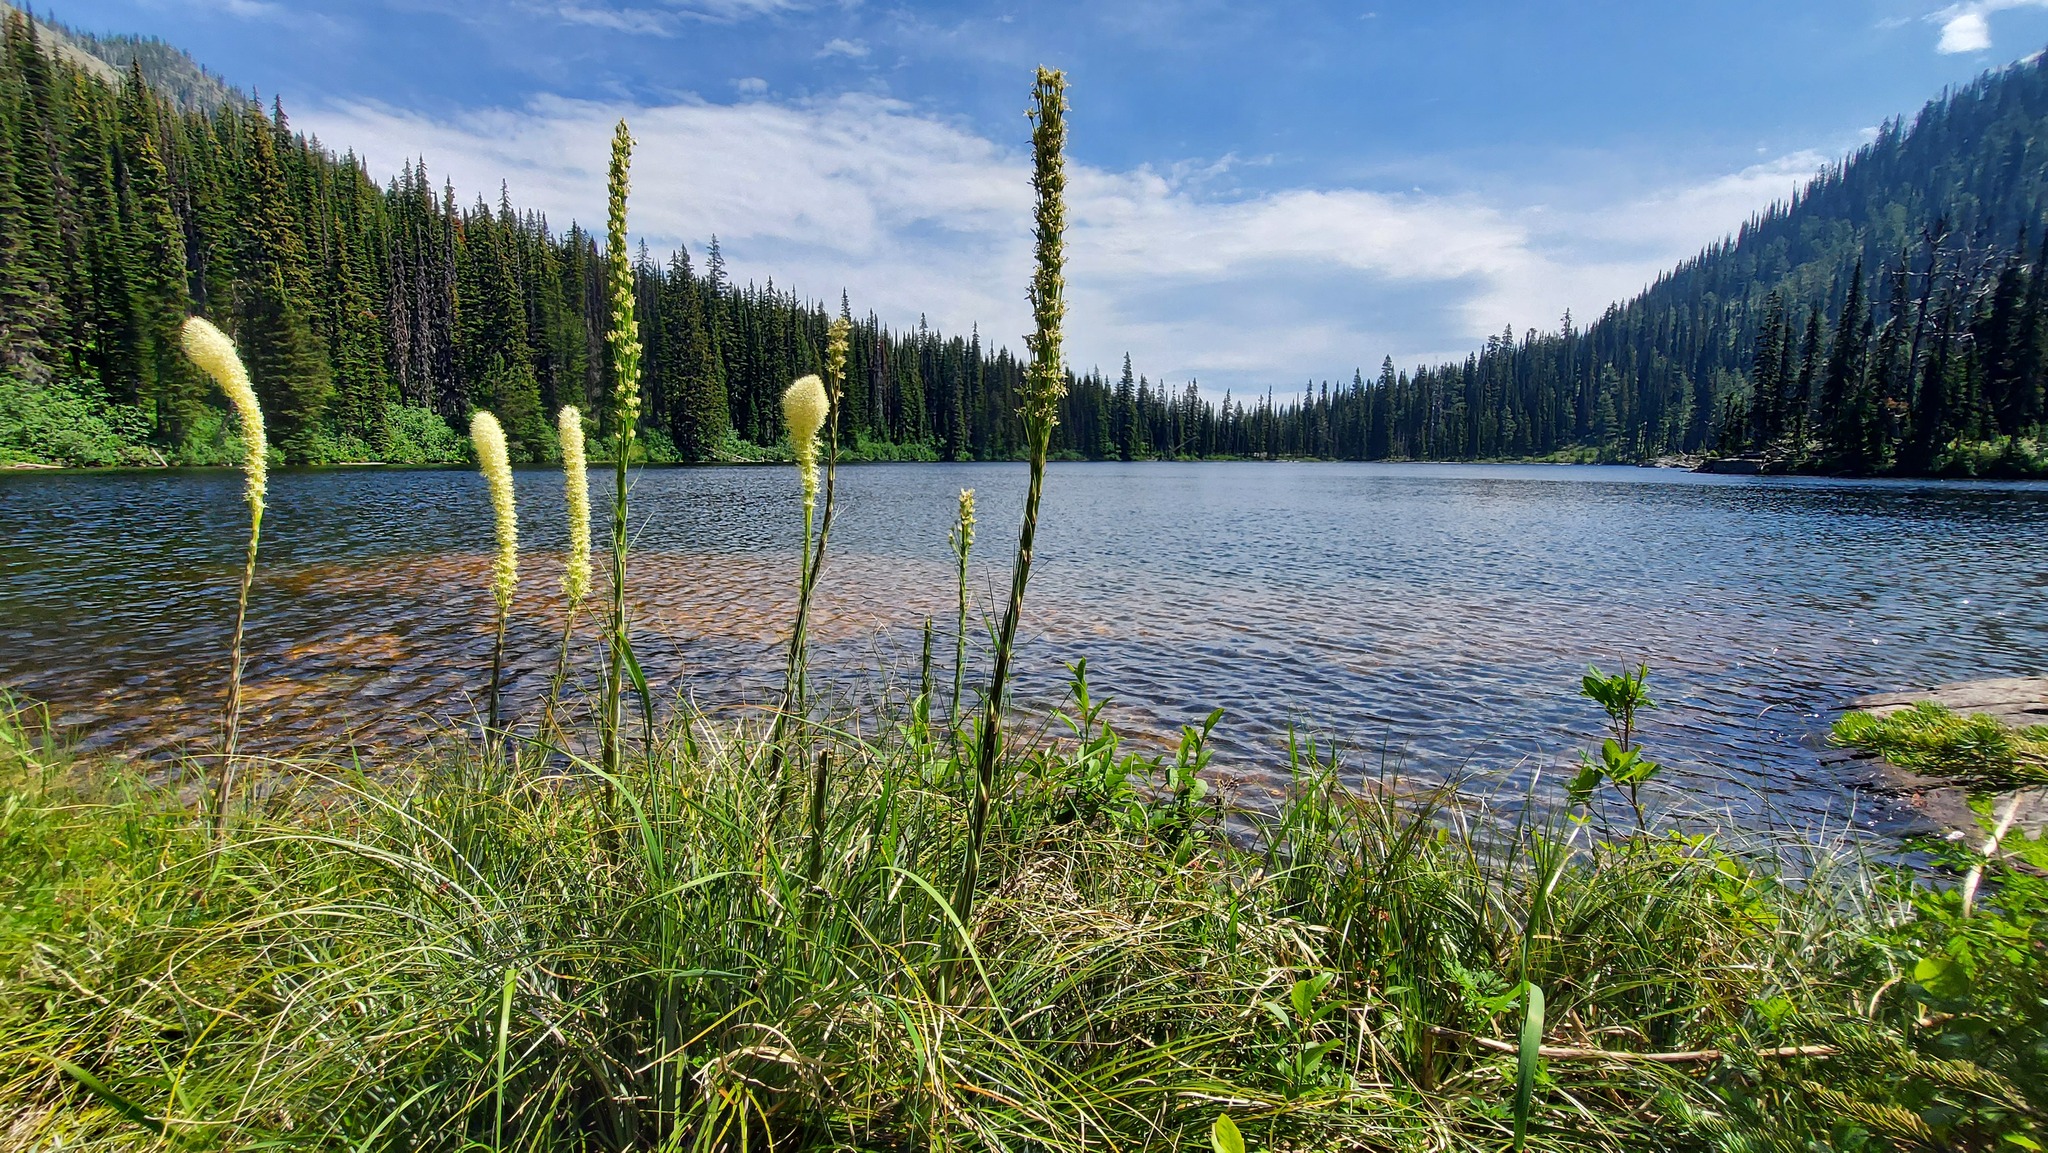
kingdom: Plantae
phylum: Tracheophyta
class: Liliopsida
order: Liliales
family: Melanthiaceae
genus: Xerophyllum
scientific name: Xerophyllum tenax
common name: Bear-grass
